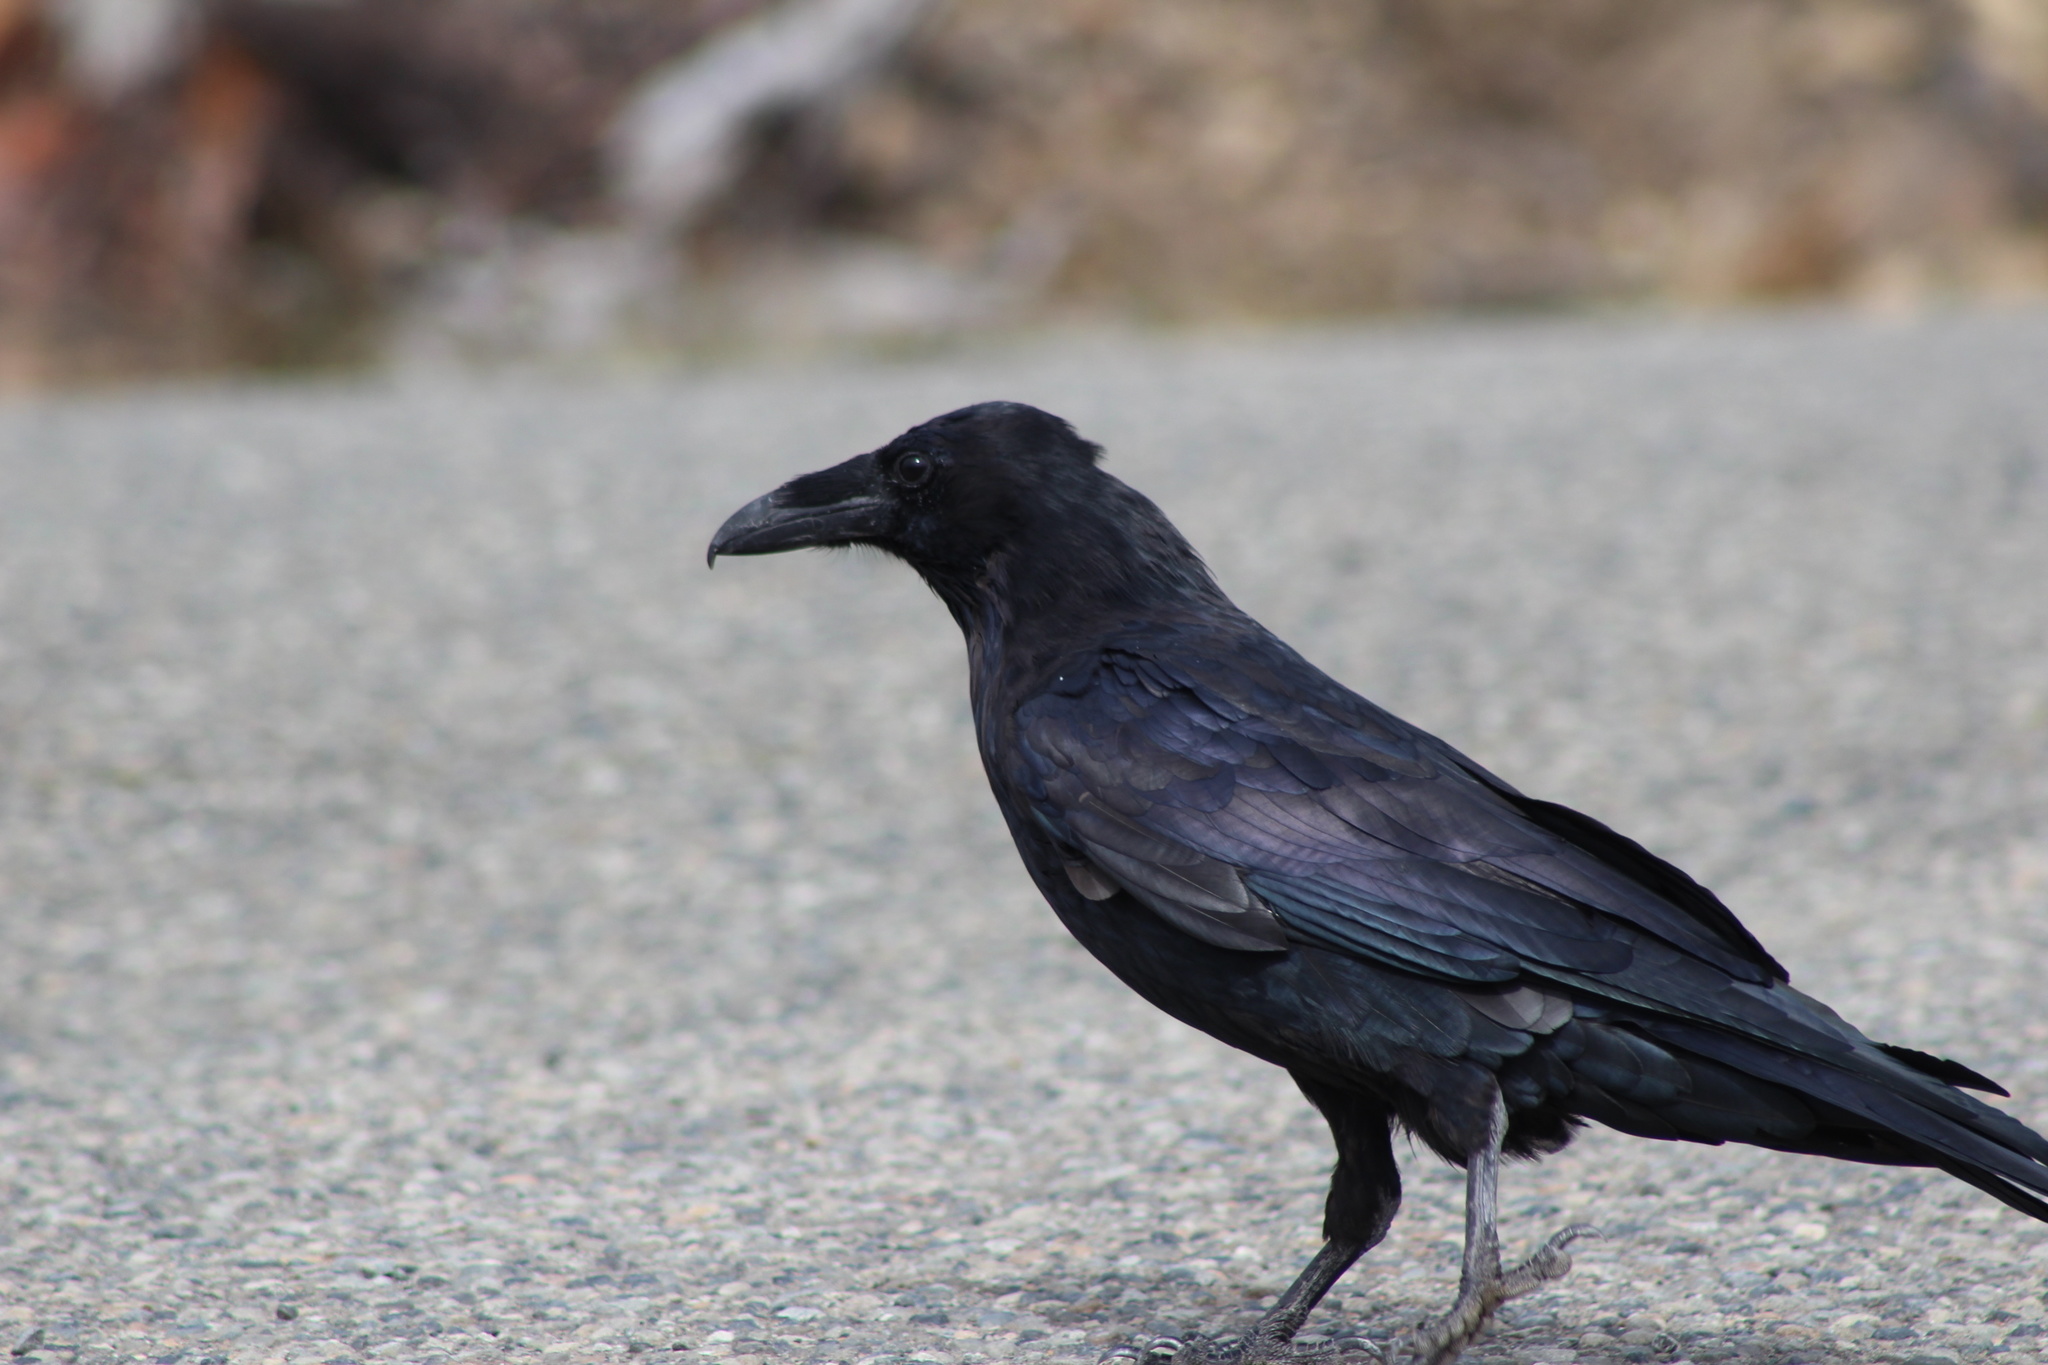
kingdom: Animalia
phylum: Chordata
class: Aves
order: Passeriformes
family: Corvidae
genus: Corvus
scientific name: Corvus corax
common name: Common raven
